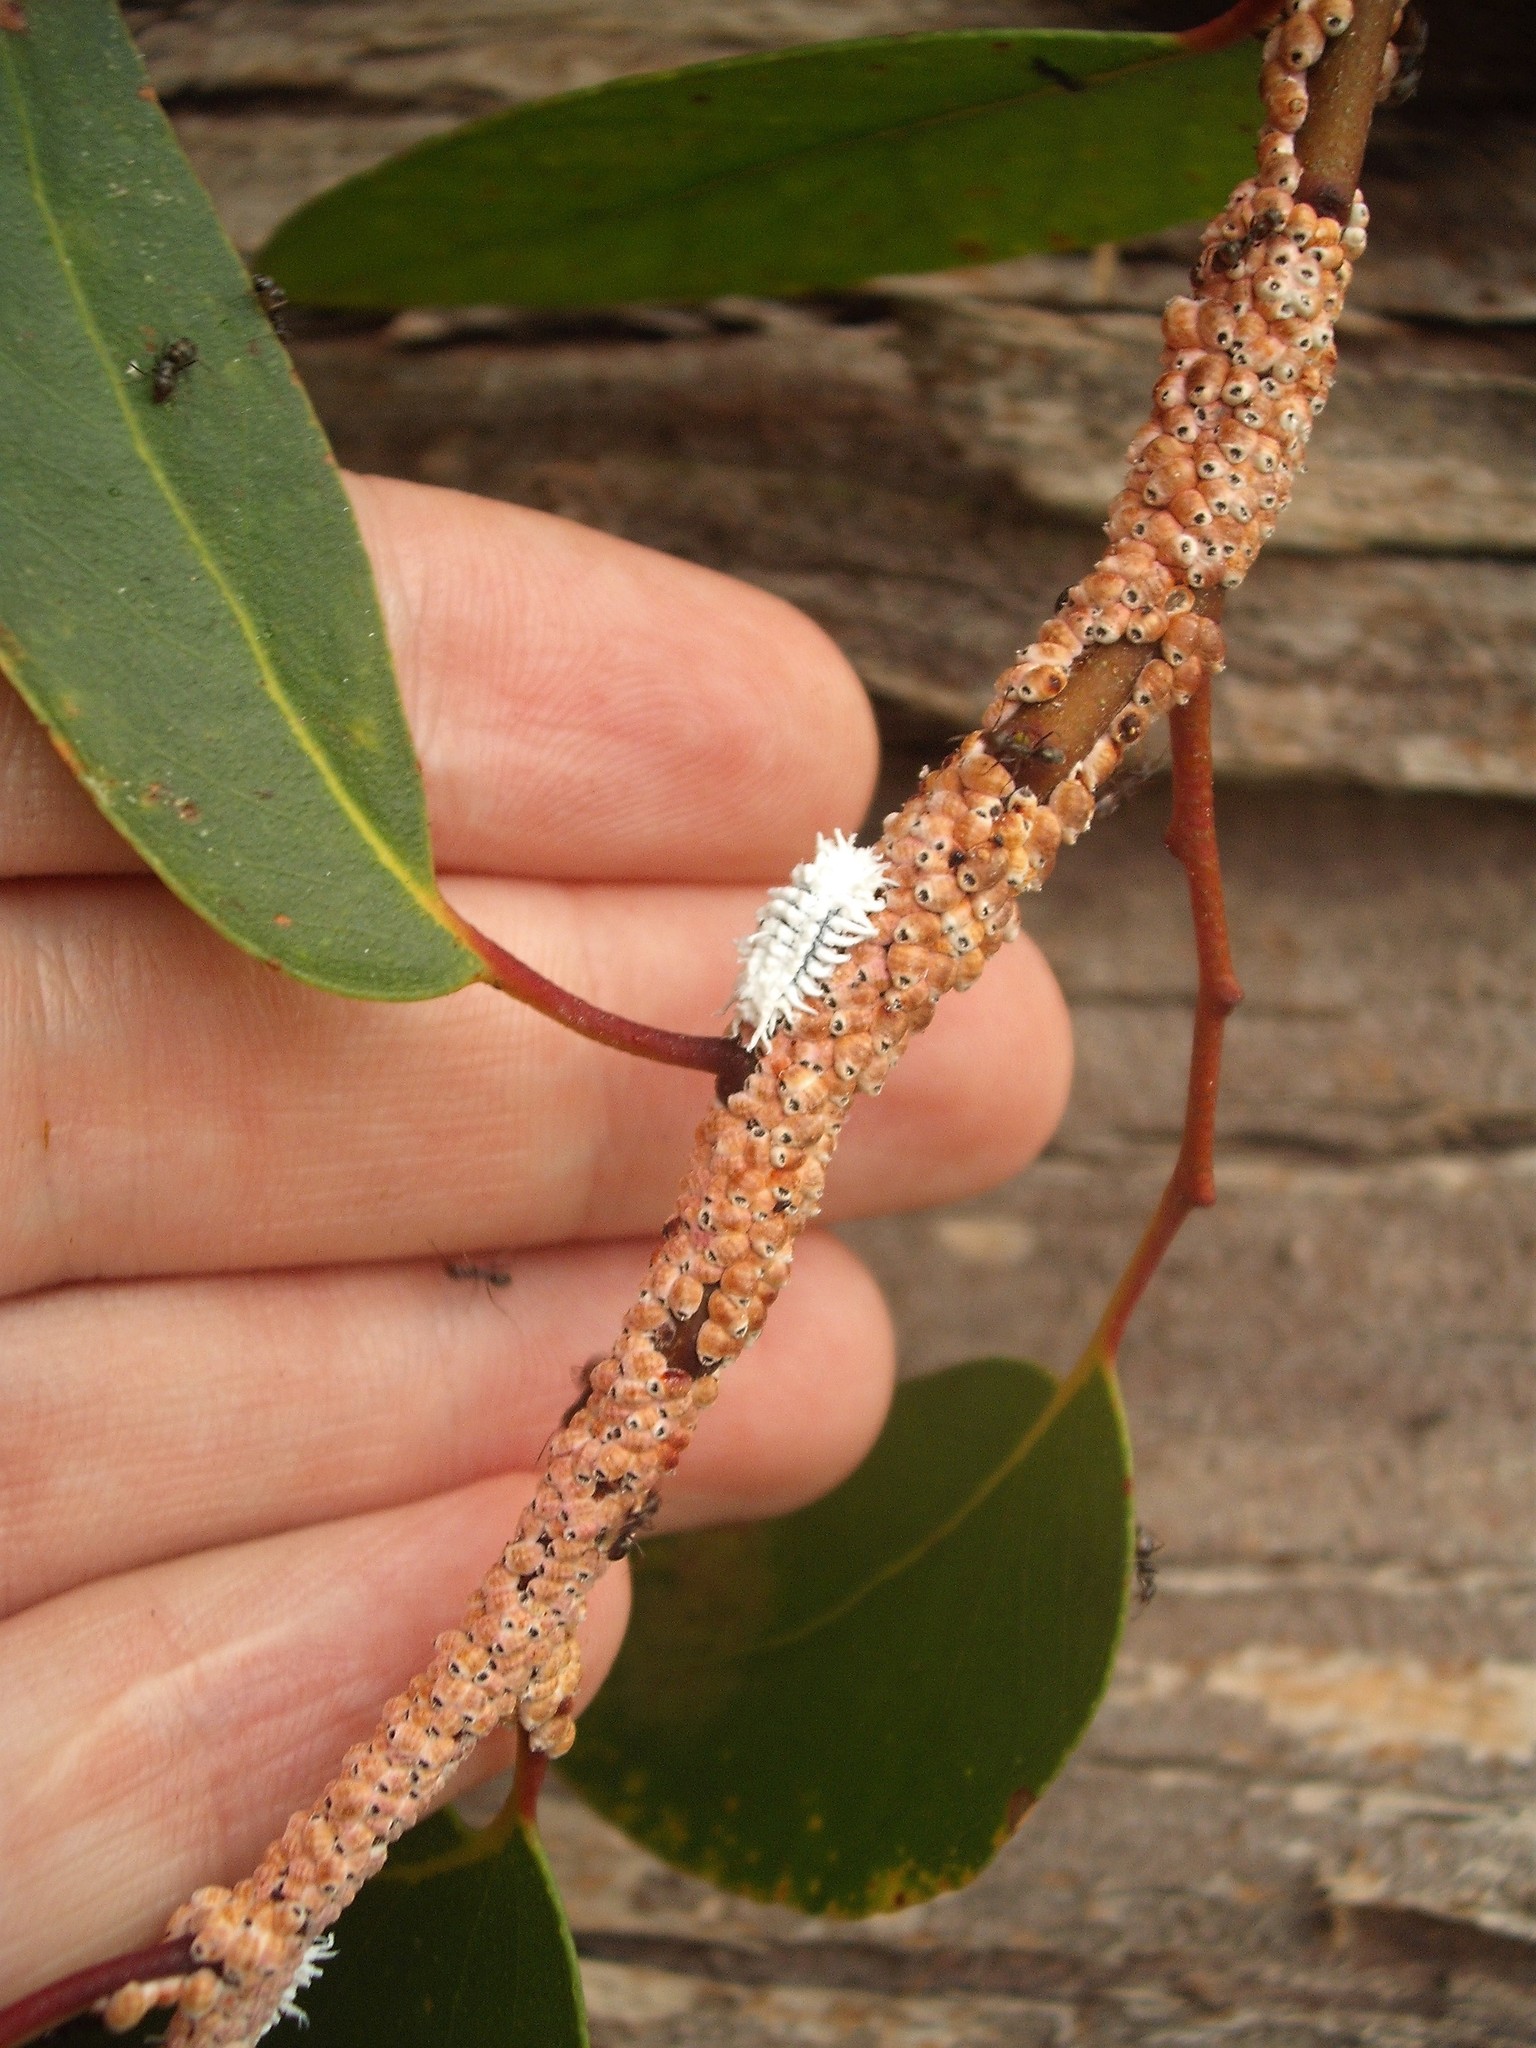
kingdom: Animalia
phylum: Arthropoda
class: Insecta
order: Hemiptera
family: Eriococcidae
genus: Eriococcus
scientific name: Eriococcus coriaceus
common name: Blue gum scale
